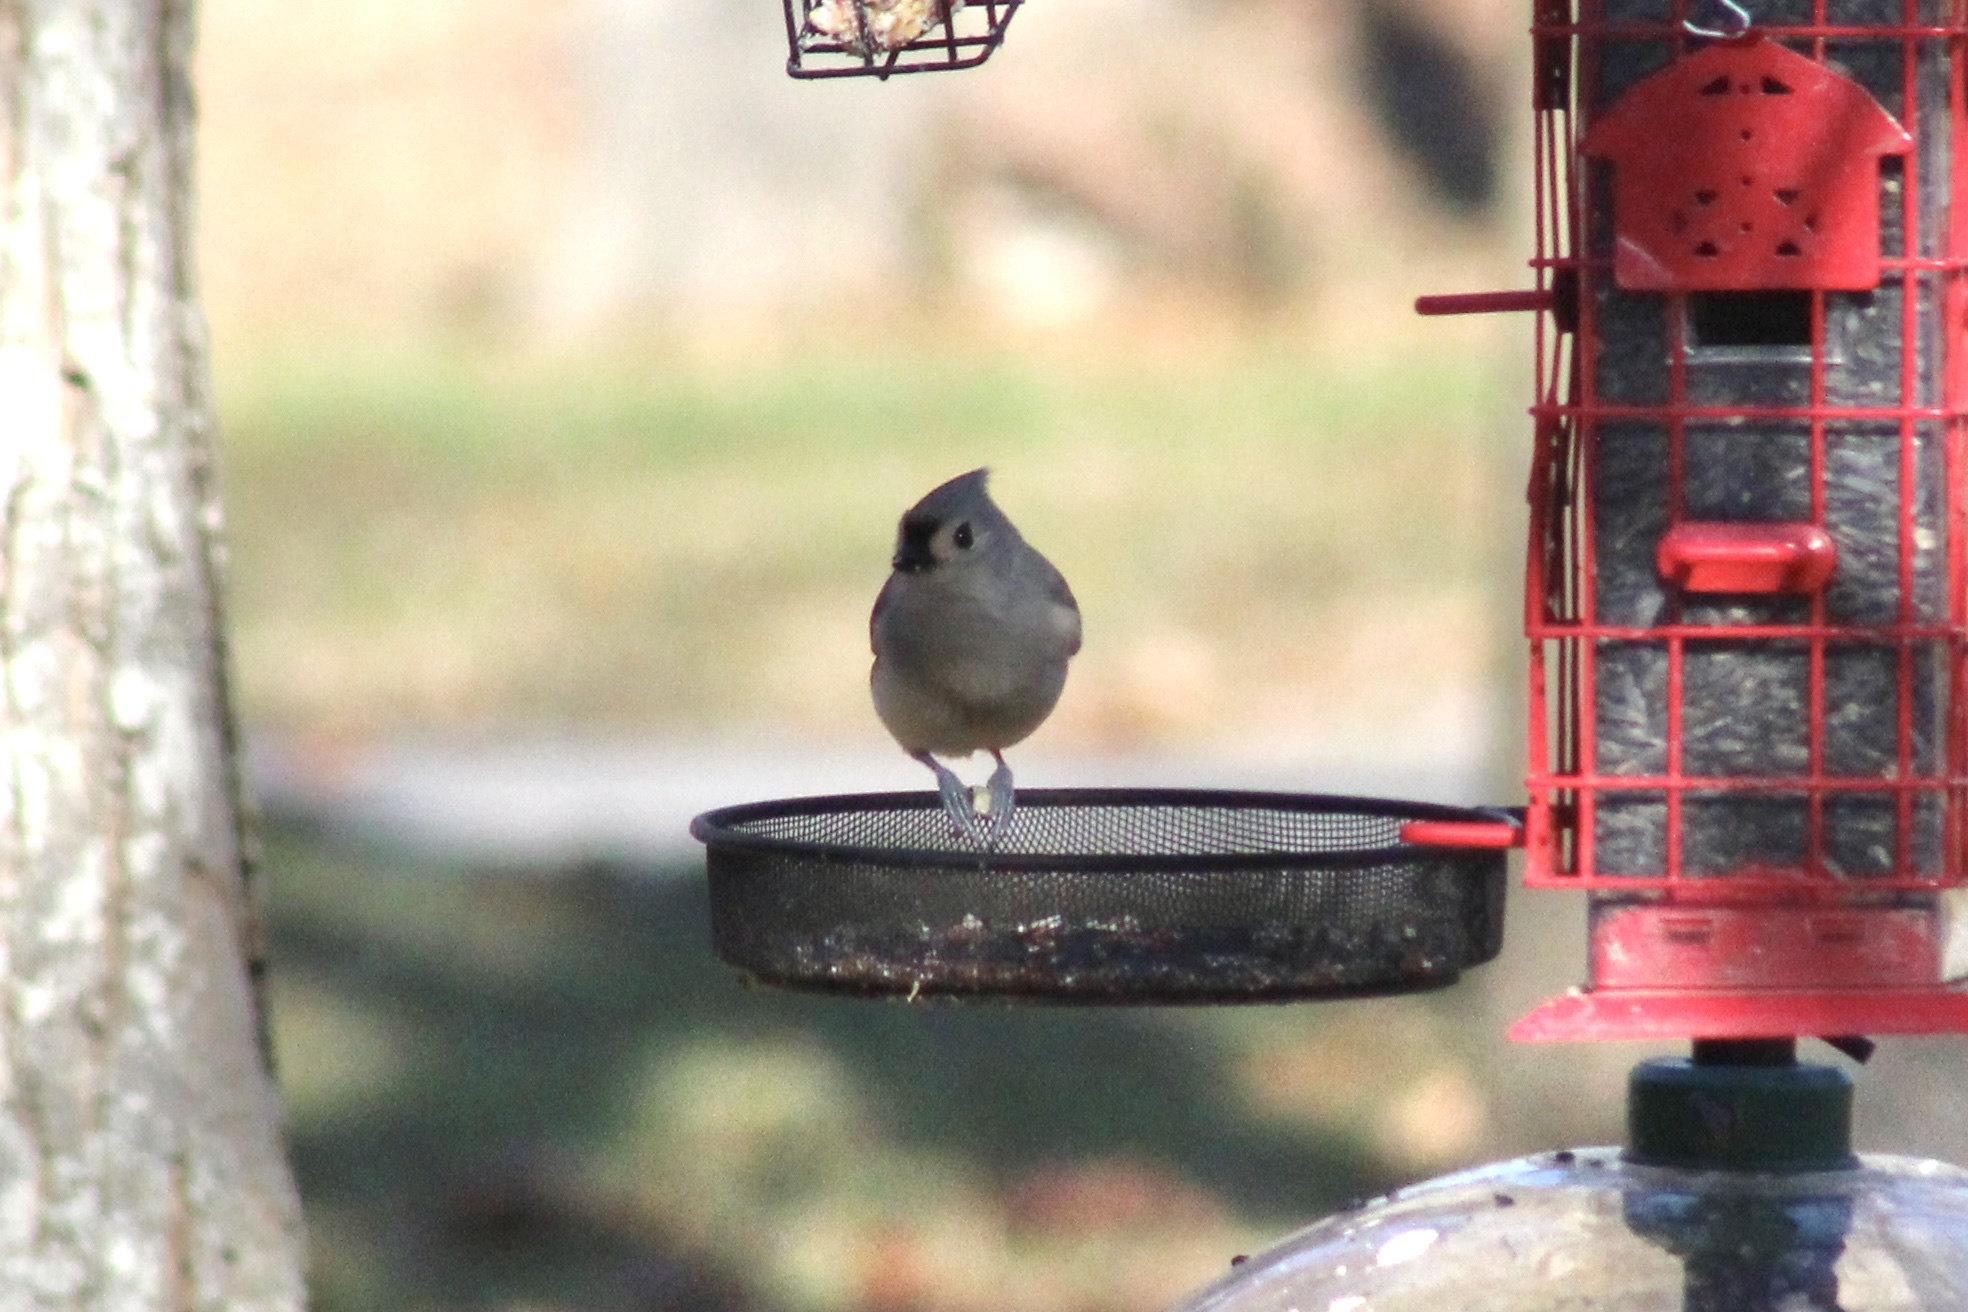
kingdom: Animalia
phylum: Chordata
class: Aves
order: Passeriformes
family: Paridae
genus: Baeolophus
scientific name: Baeolophus bicolor
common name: Tufted titmouse
